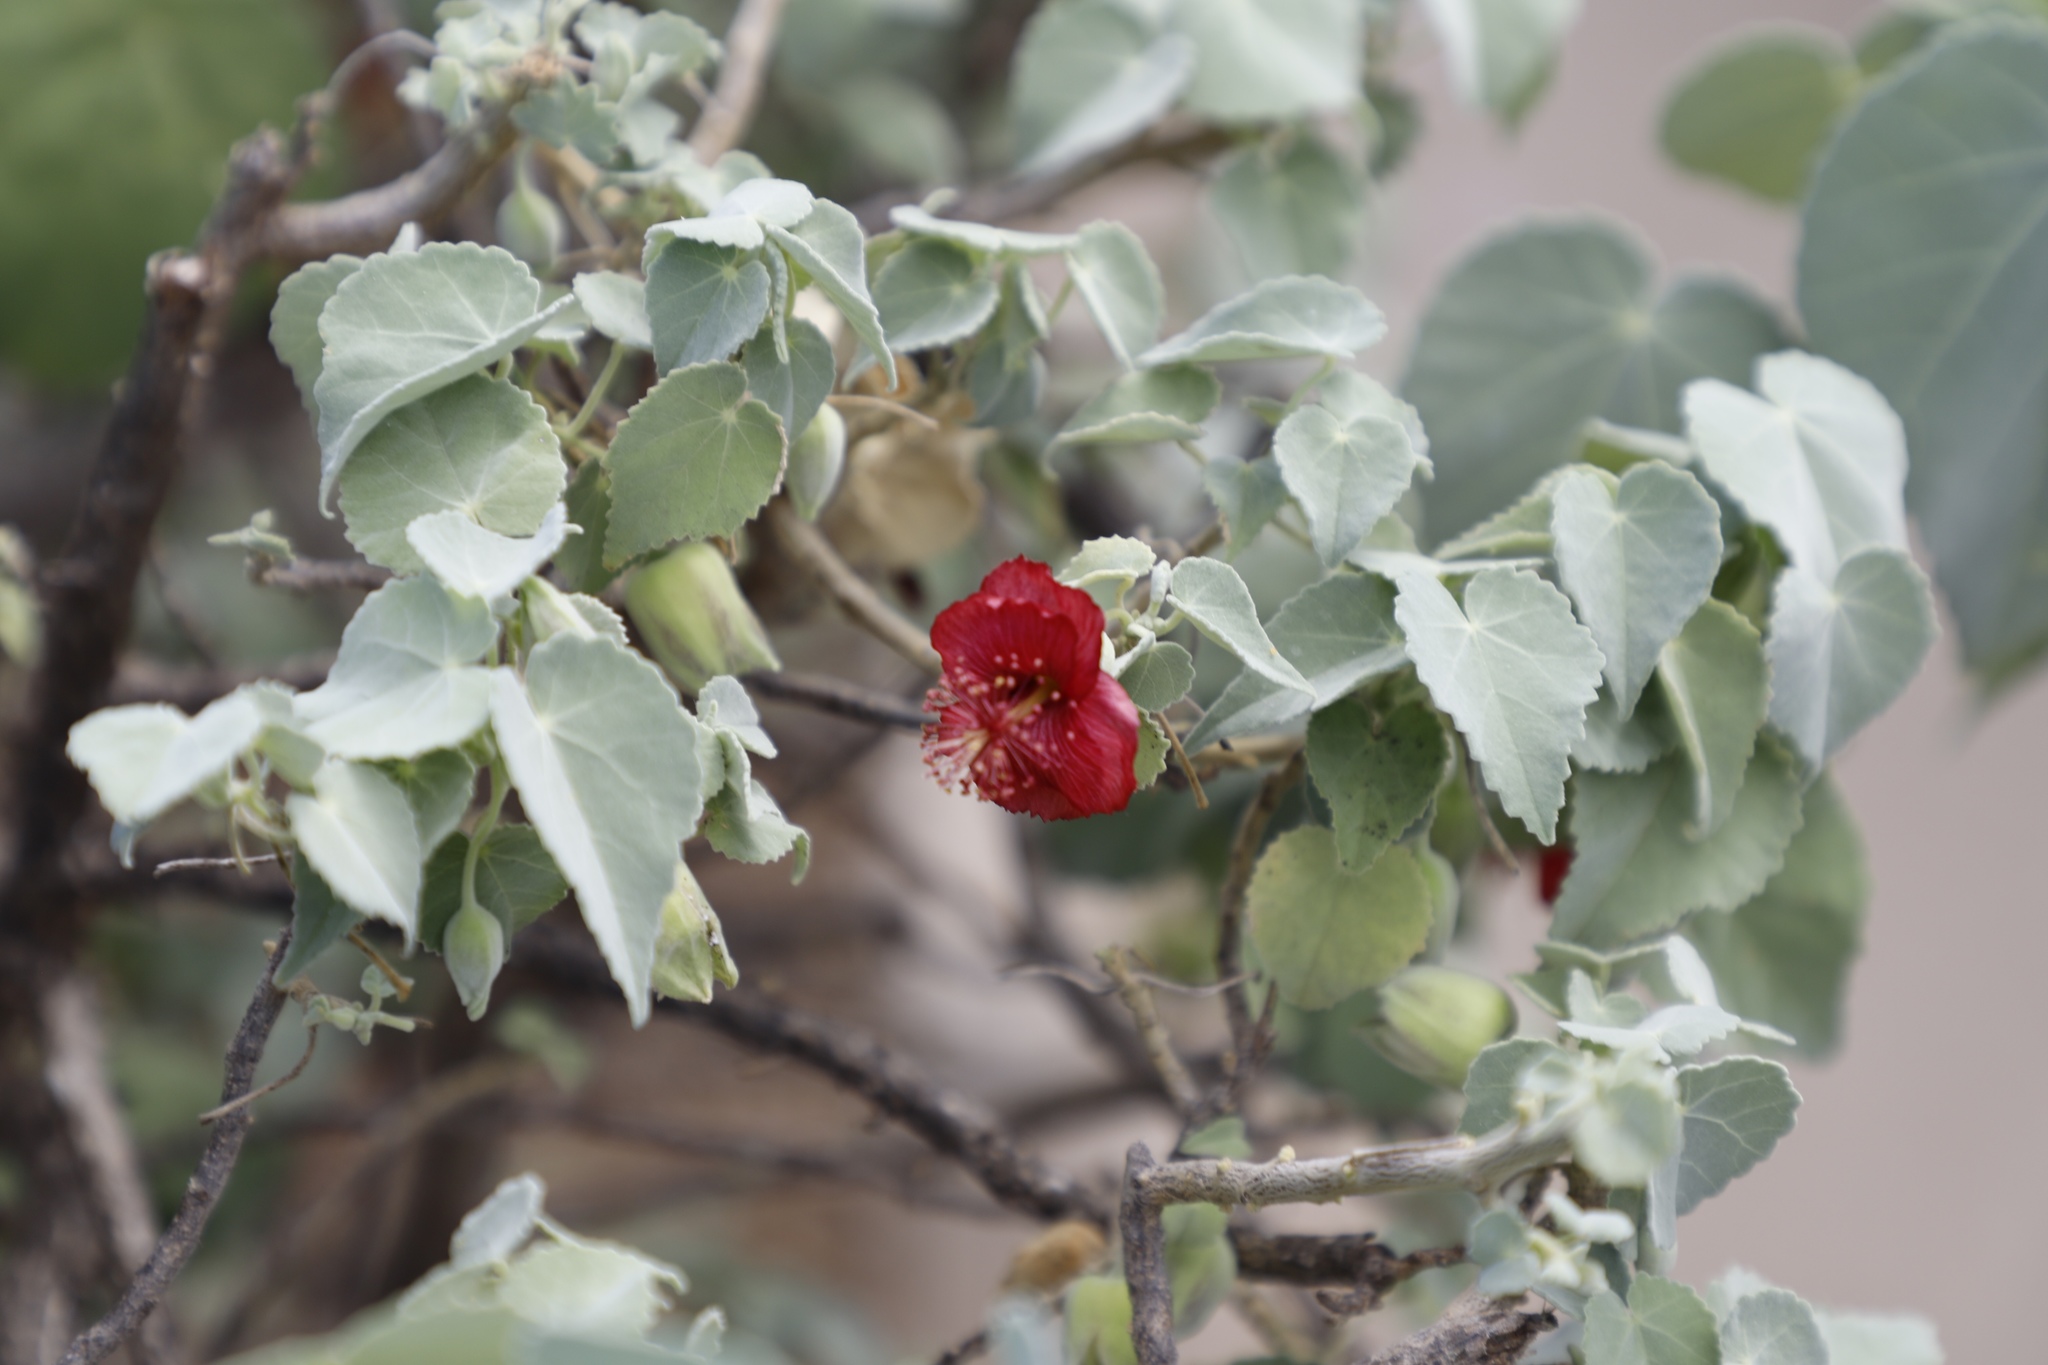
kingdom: Plantae
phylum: Tracheophyta
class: Magnoliopsida
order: Malvales
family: Malvaceae
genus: Abutilon
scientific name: Abutilon menziesii
